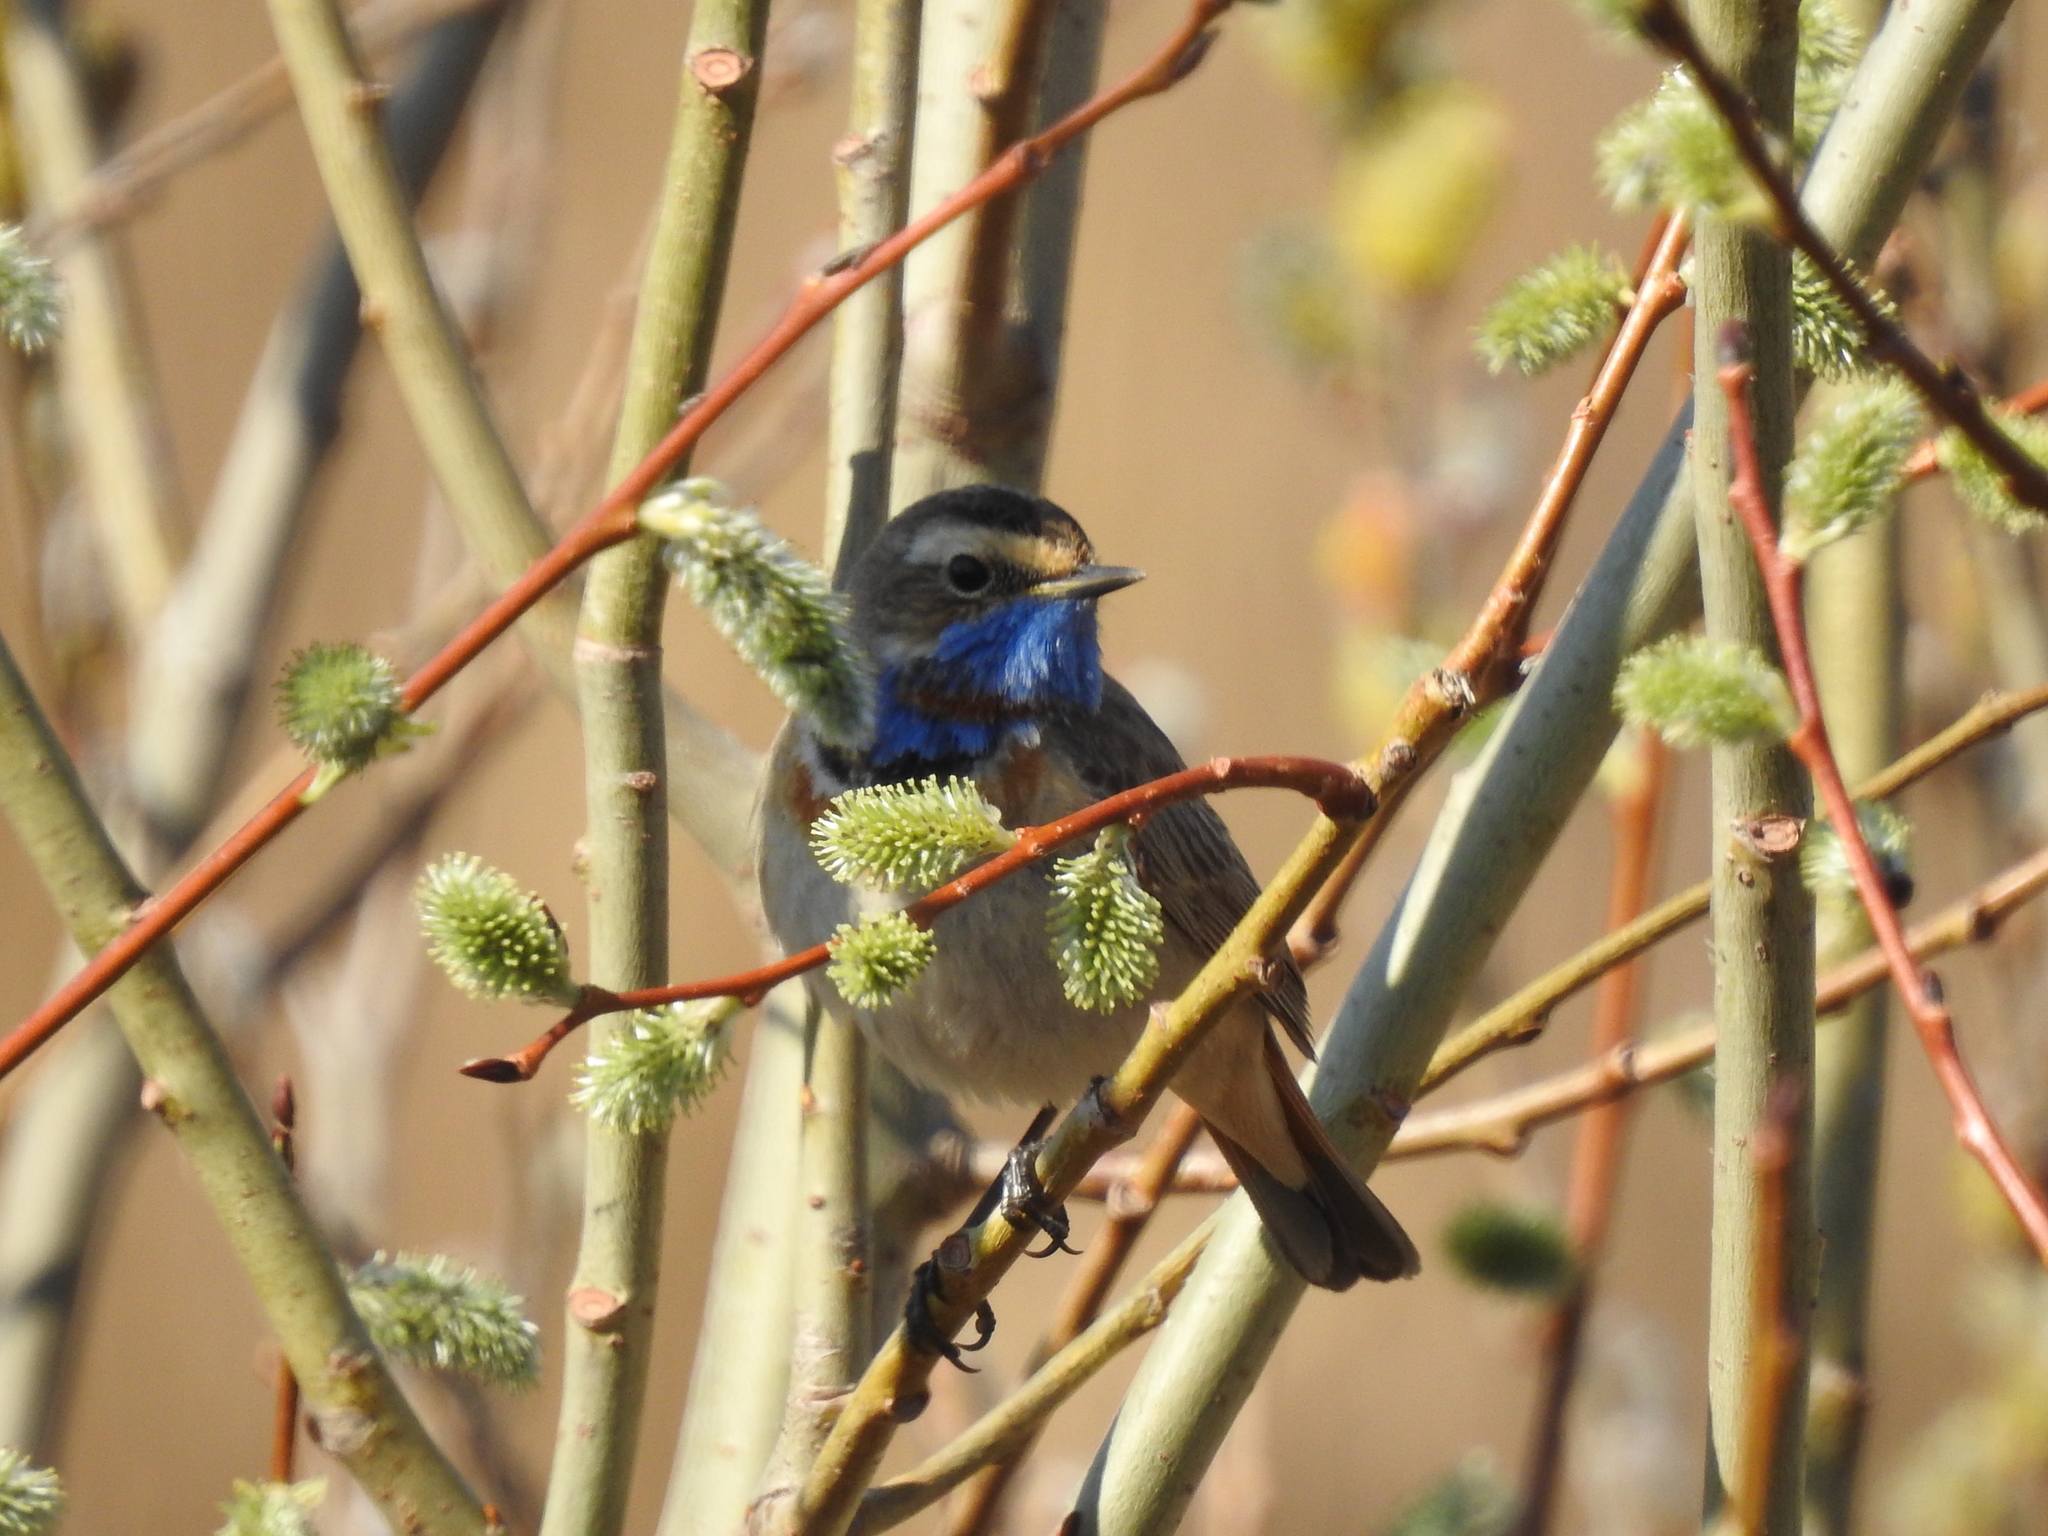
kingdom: Animalia
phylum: Chordata
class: Aves
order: Passeriformes
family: Muscicapidae
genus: Luscinia
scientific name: Luscinia svecica
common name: Bluethroat
